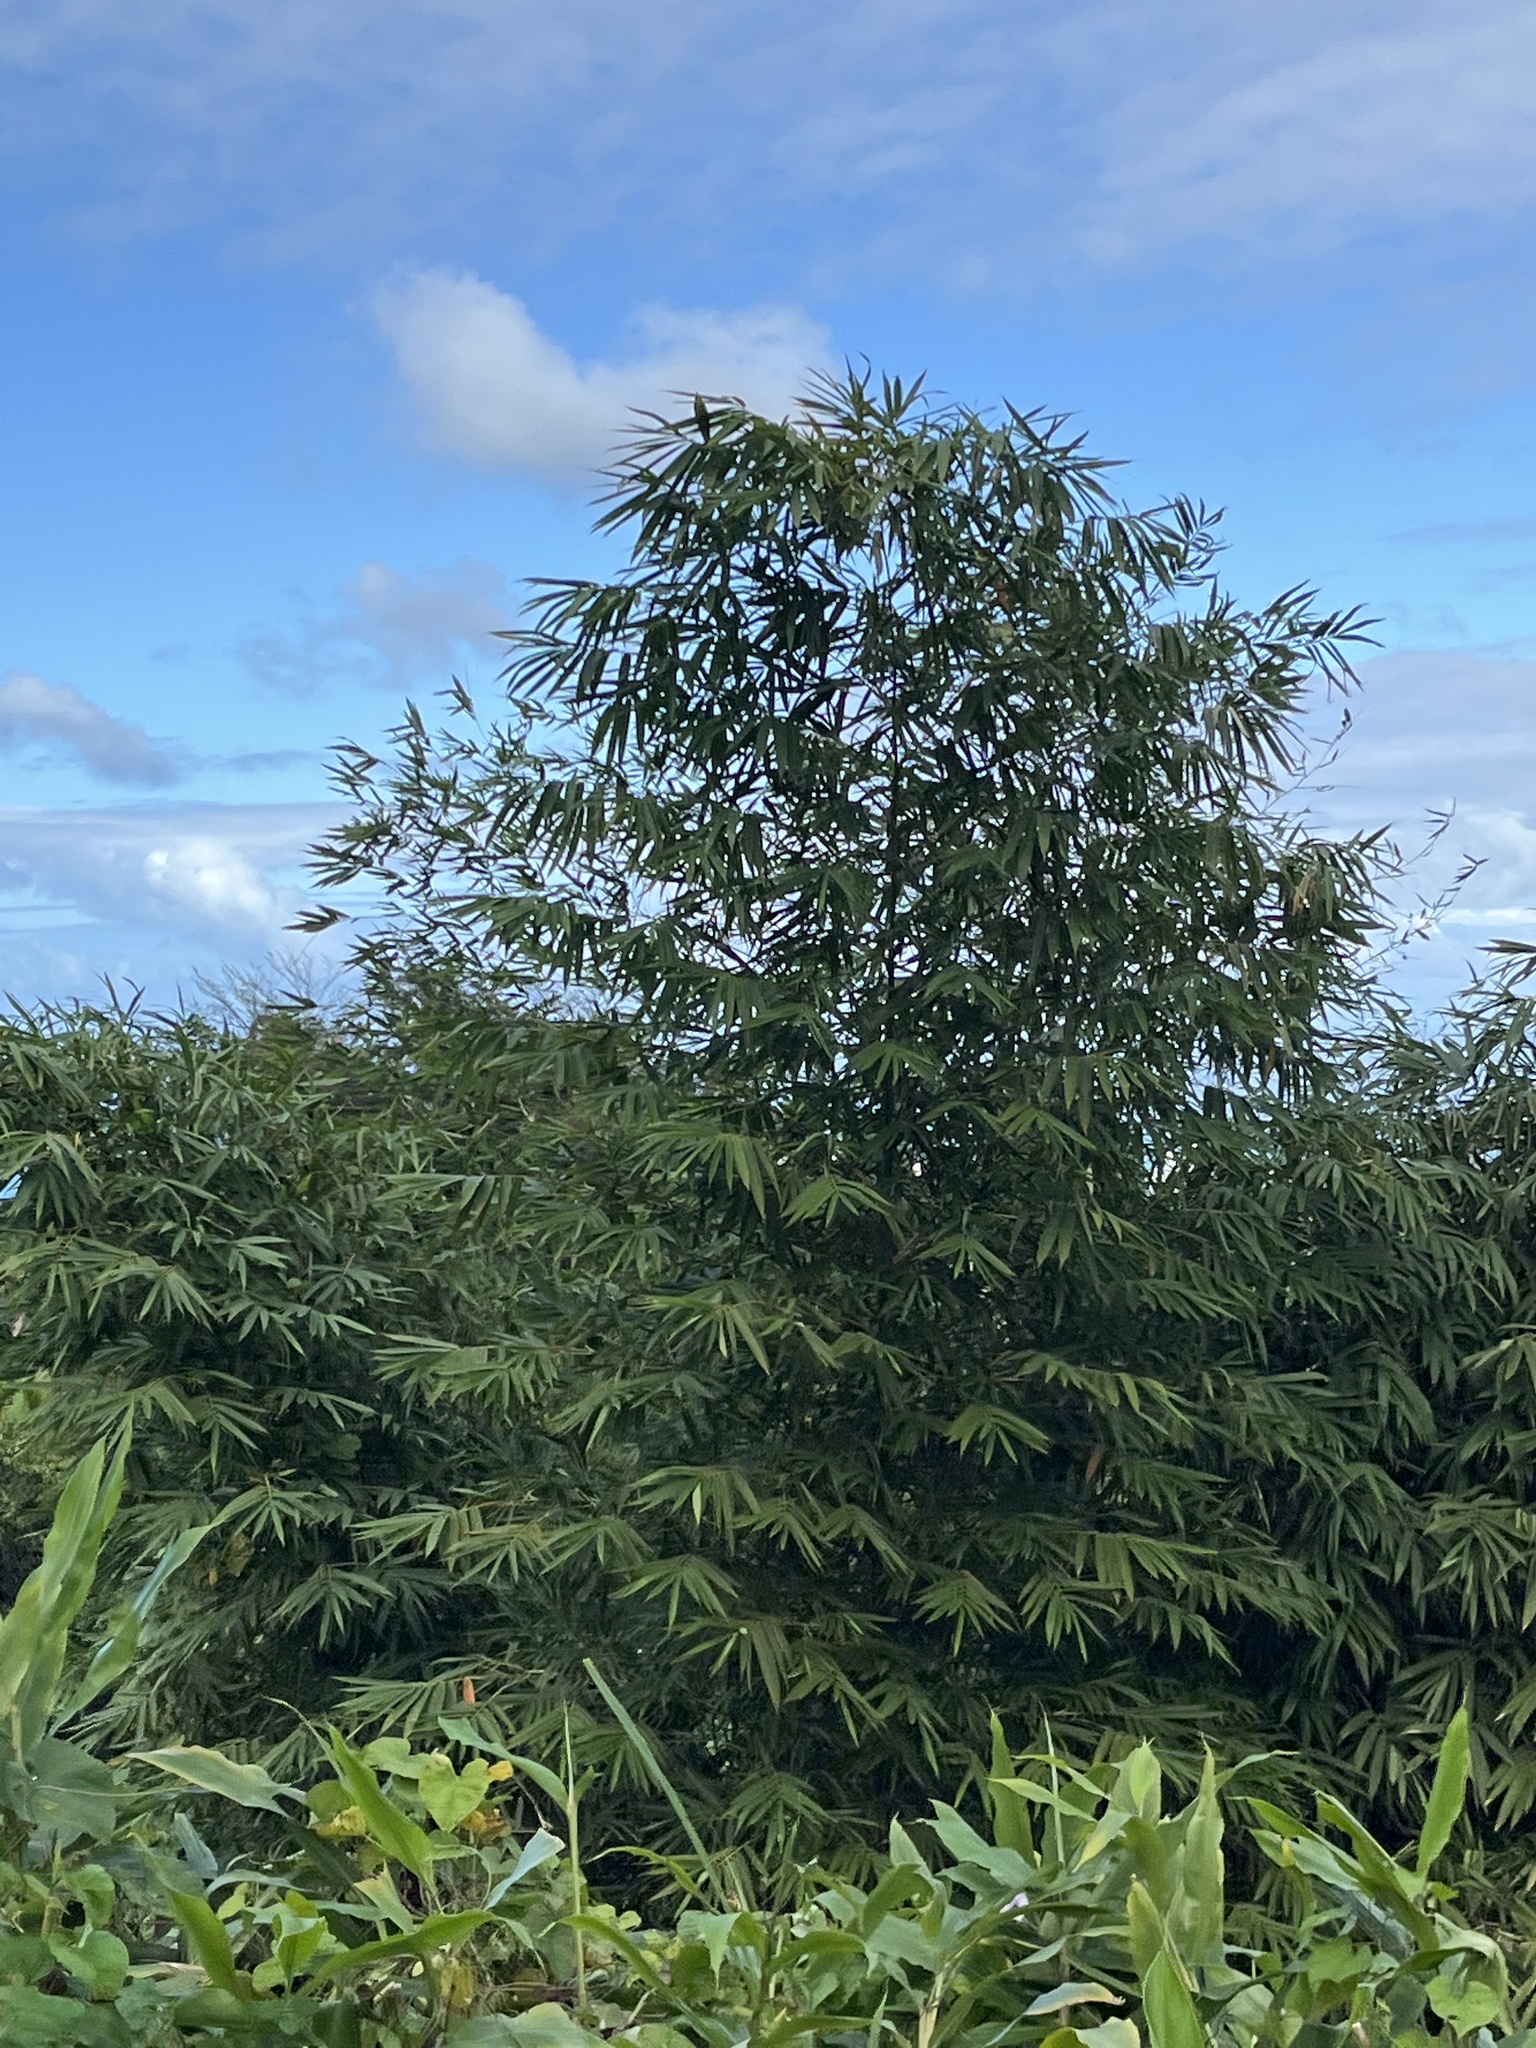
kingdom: Plantae
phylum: Tracheophyta
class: Liliopsida
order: Poales
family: Poaceae
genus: Bambusa
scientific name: Bambusa vulgaris
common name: Common bamboo
